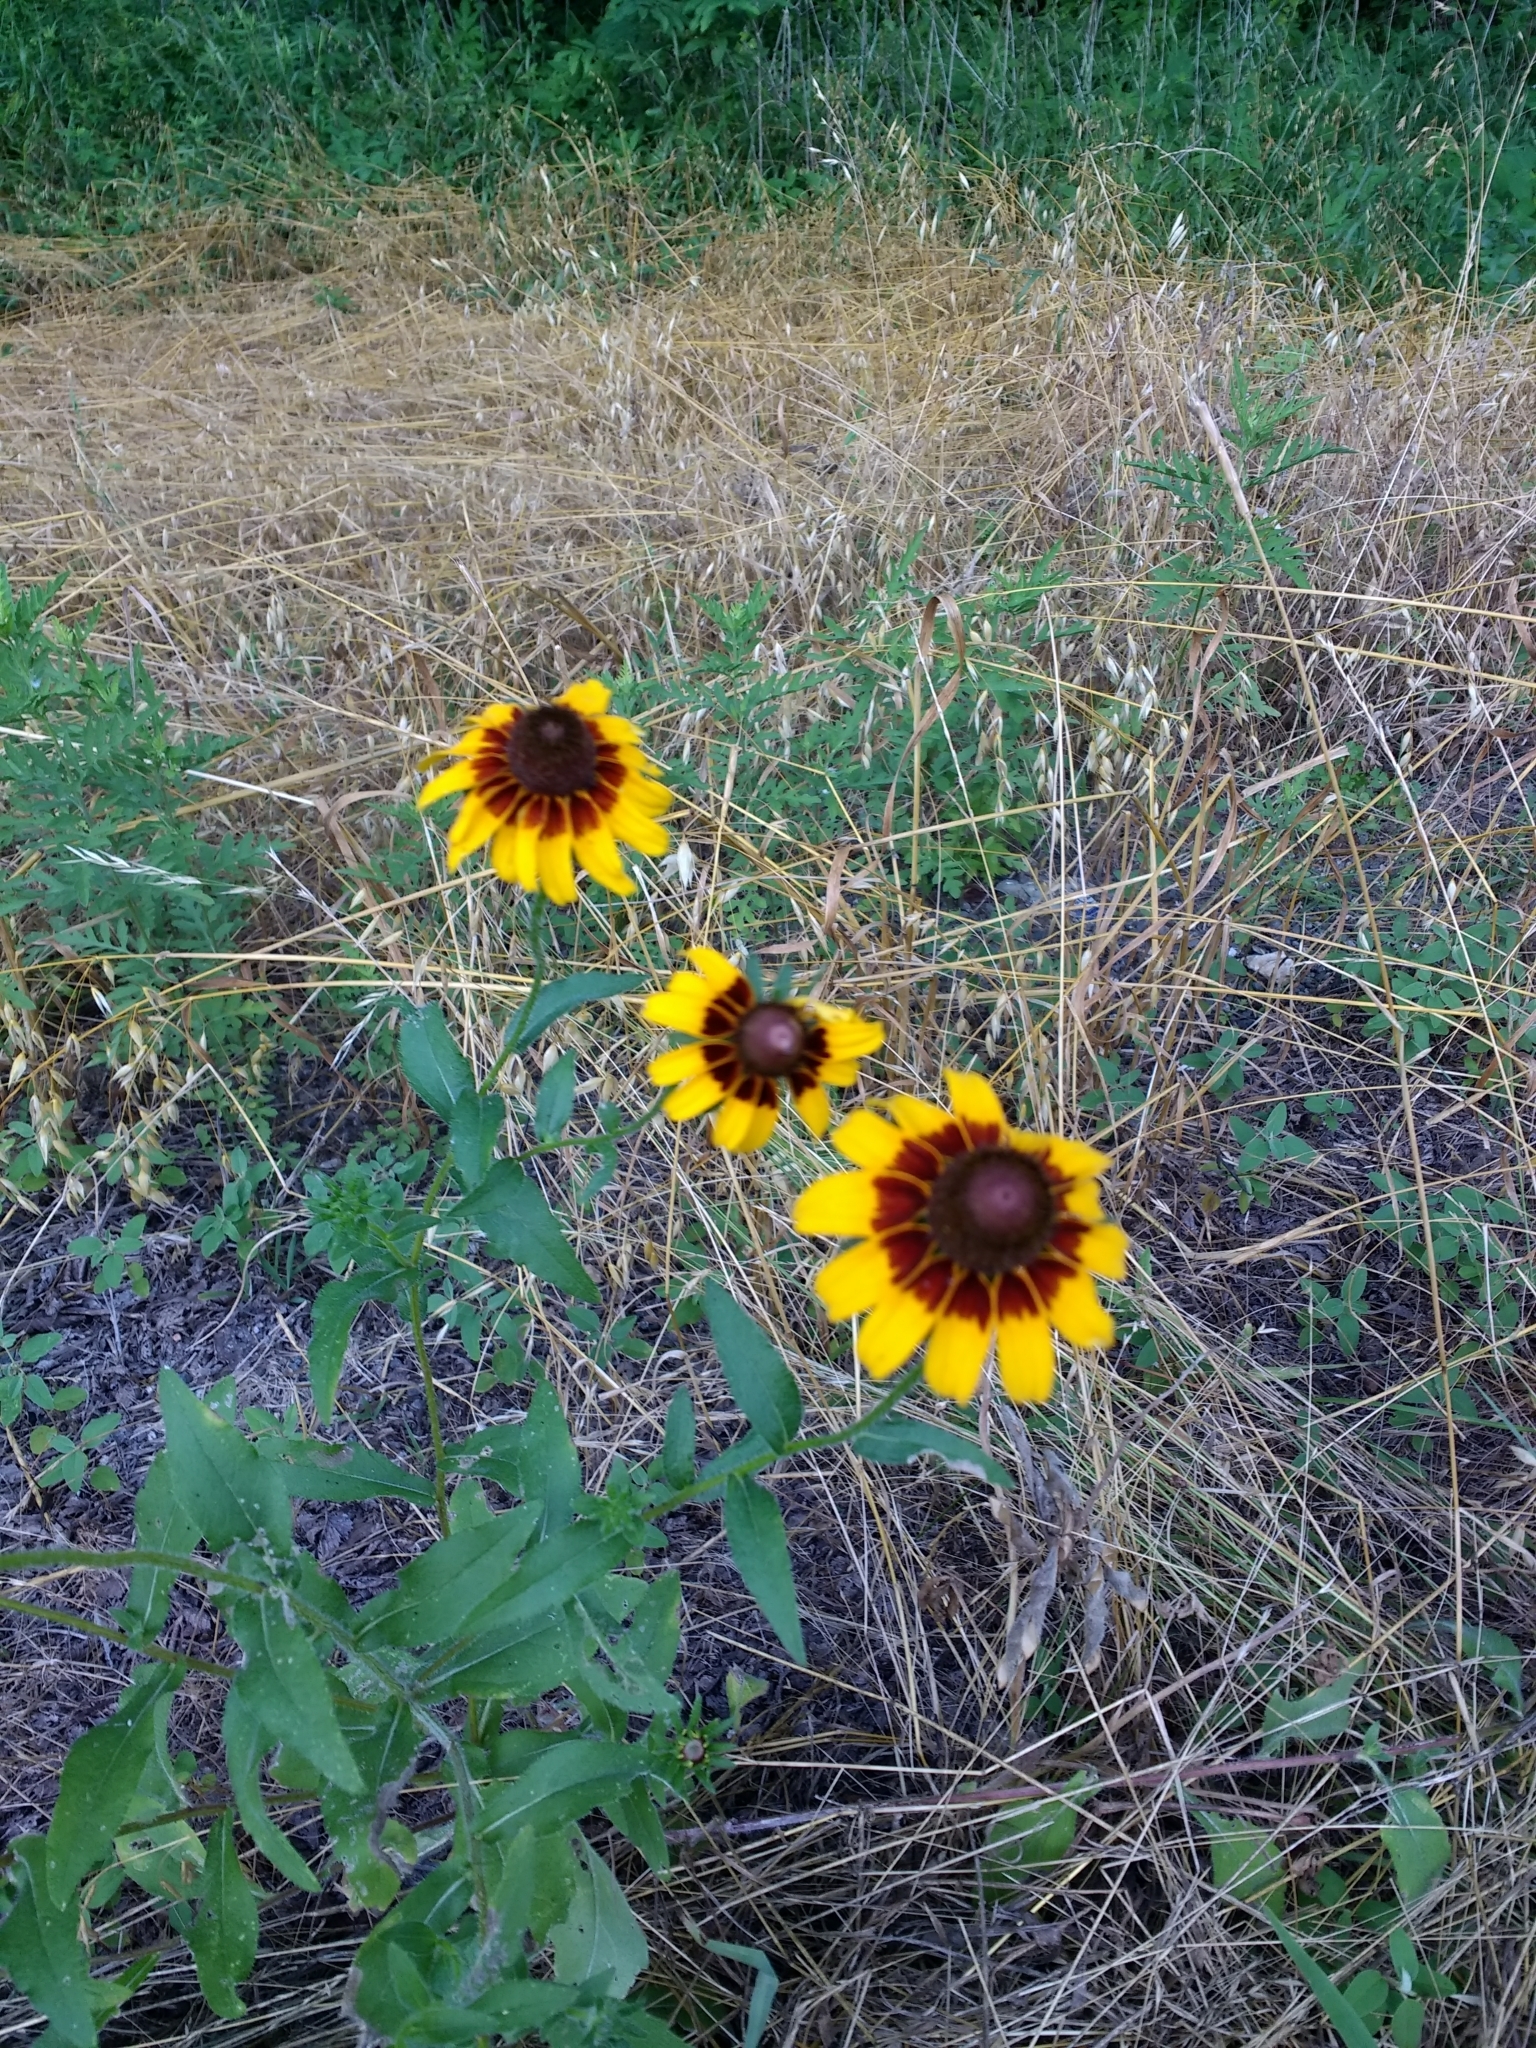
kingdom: Plantae
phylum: Tracheophyta
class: Magnoliopsida
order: Asterales
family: Asteraceae
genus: Rudbeckia
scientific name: Rudbeckia hirta
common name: Black-eyed-susan
